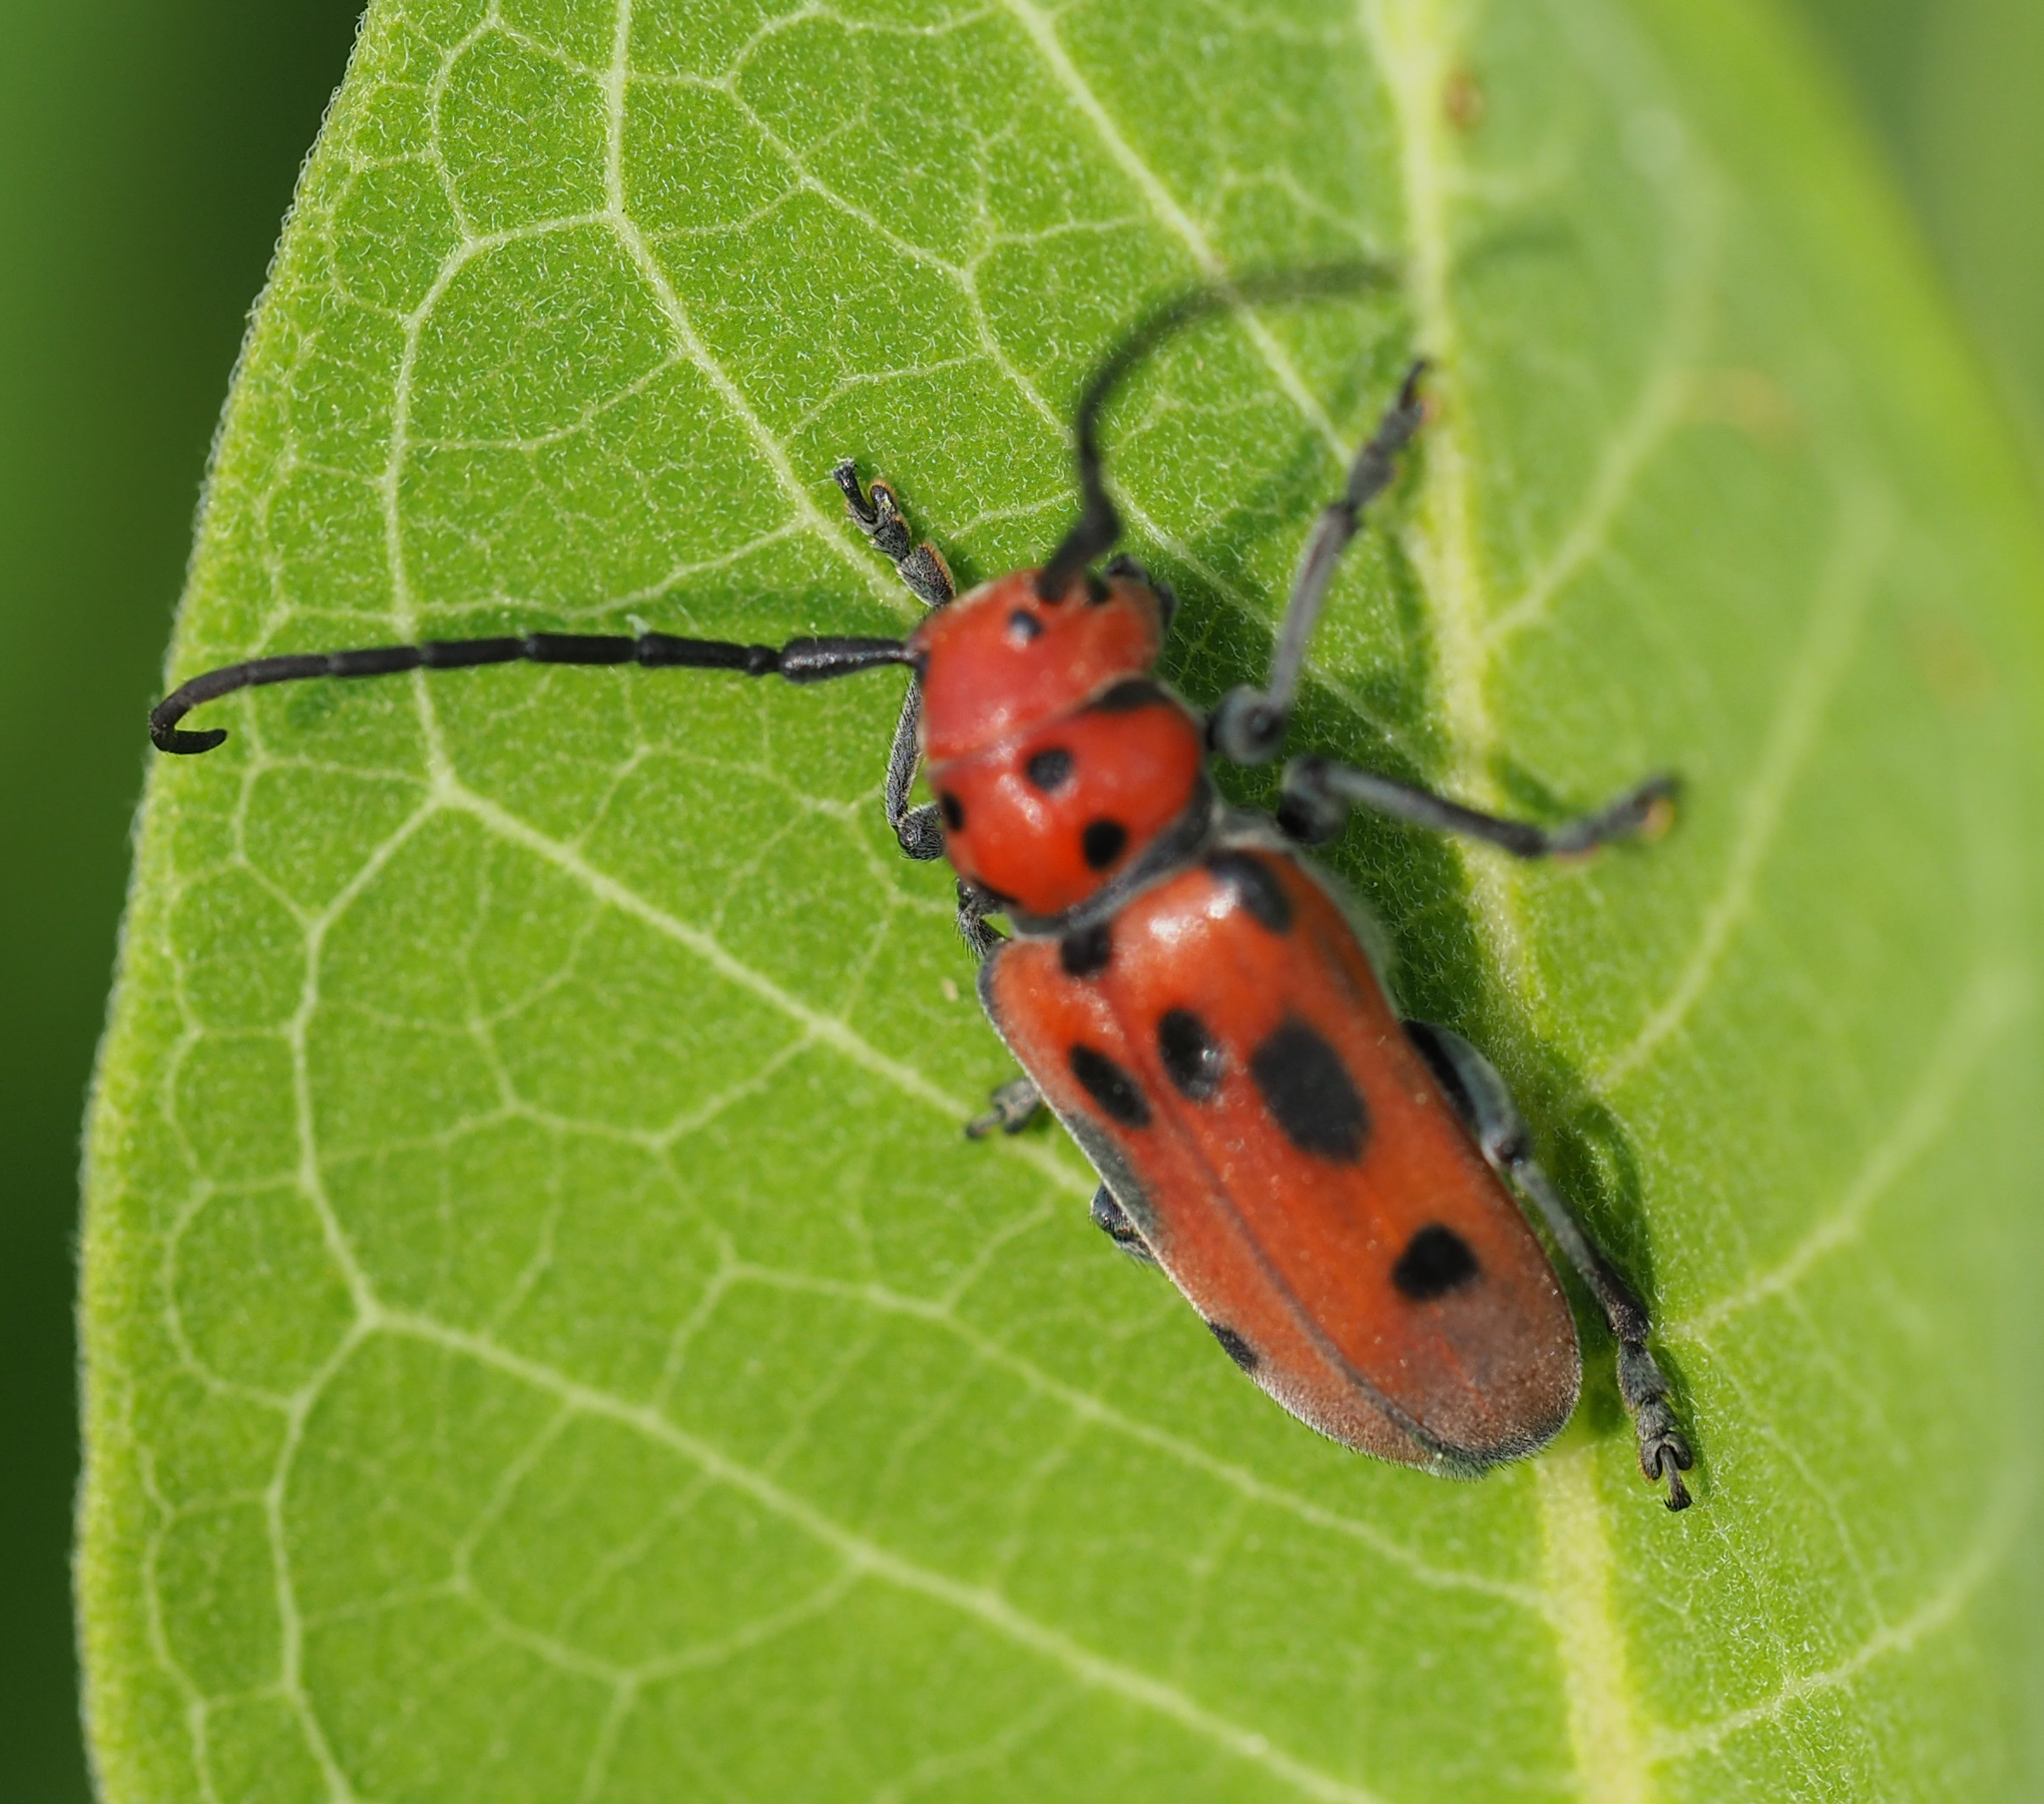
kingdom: Animalia
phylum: Arthropoda
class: Insecta
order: Coleoptera
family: Cerambycidae
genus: Tetraopes
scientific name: Tetraopes tetrophthalmus
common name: Red milkweed beetle
